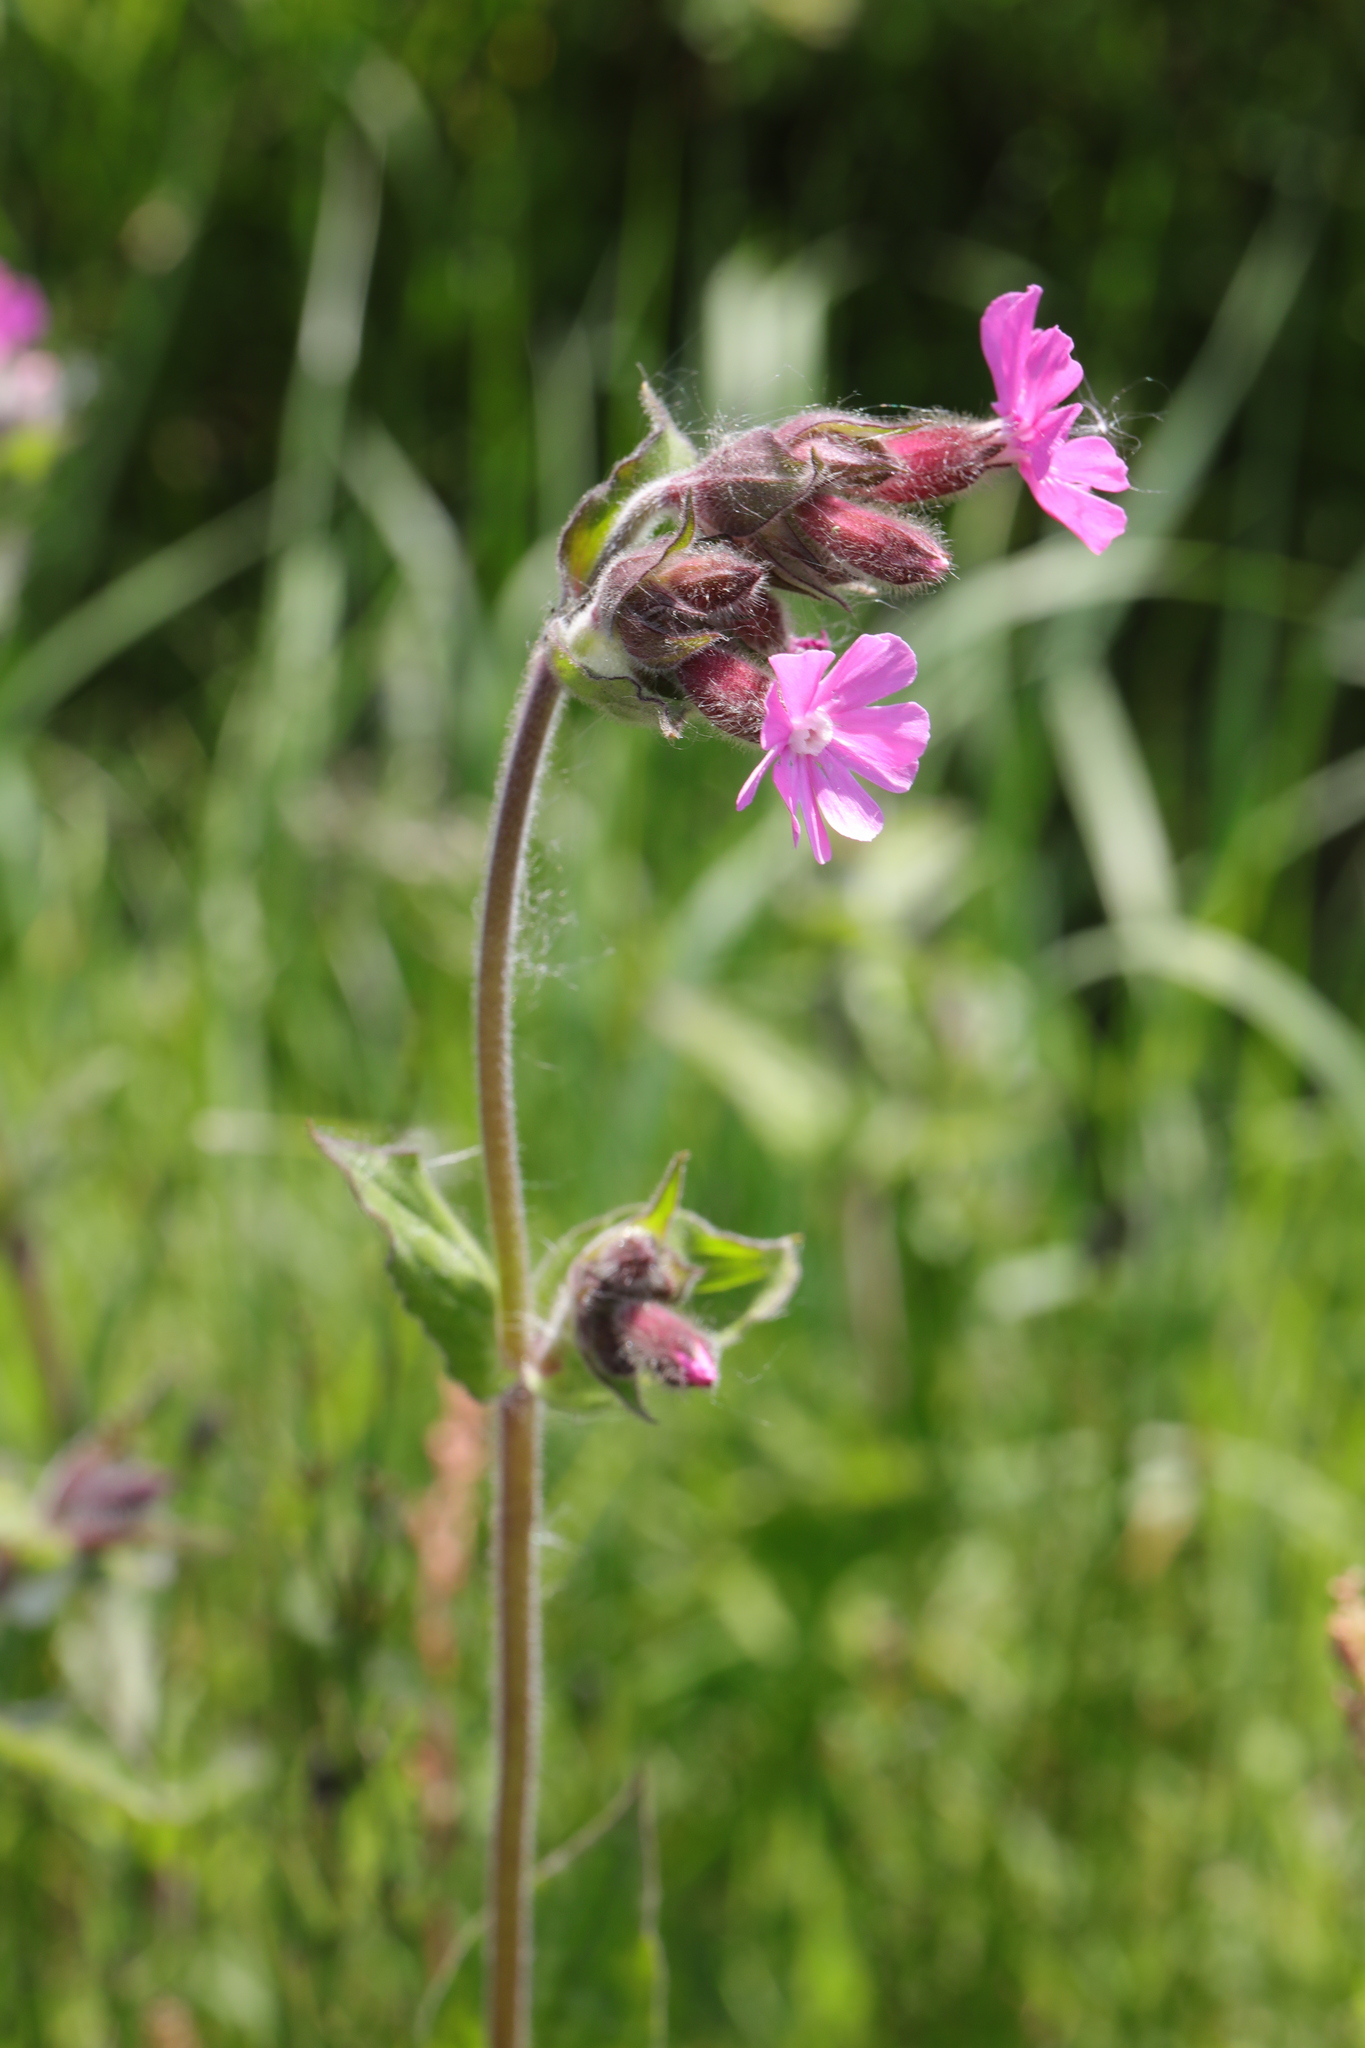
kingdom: Plantae
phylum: Tracheophyta
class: Magnoliopsida
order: Caryophyllales
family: Caryophyllaceae
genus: Silene
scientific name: Silene dioica
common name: Red campion
